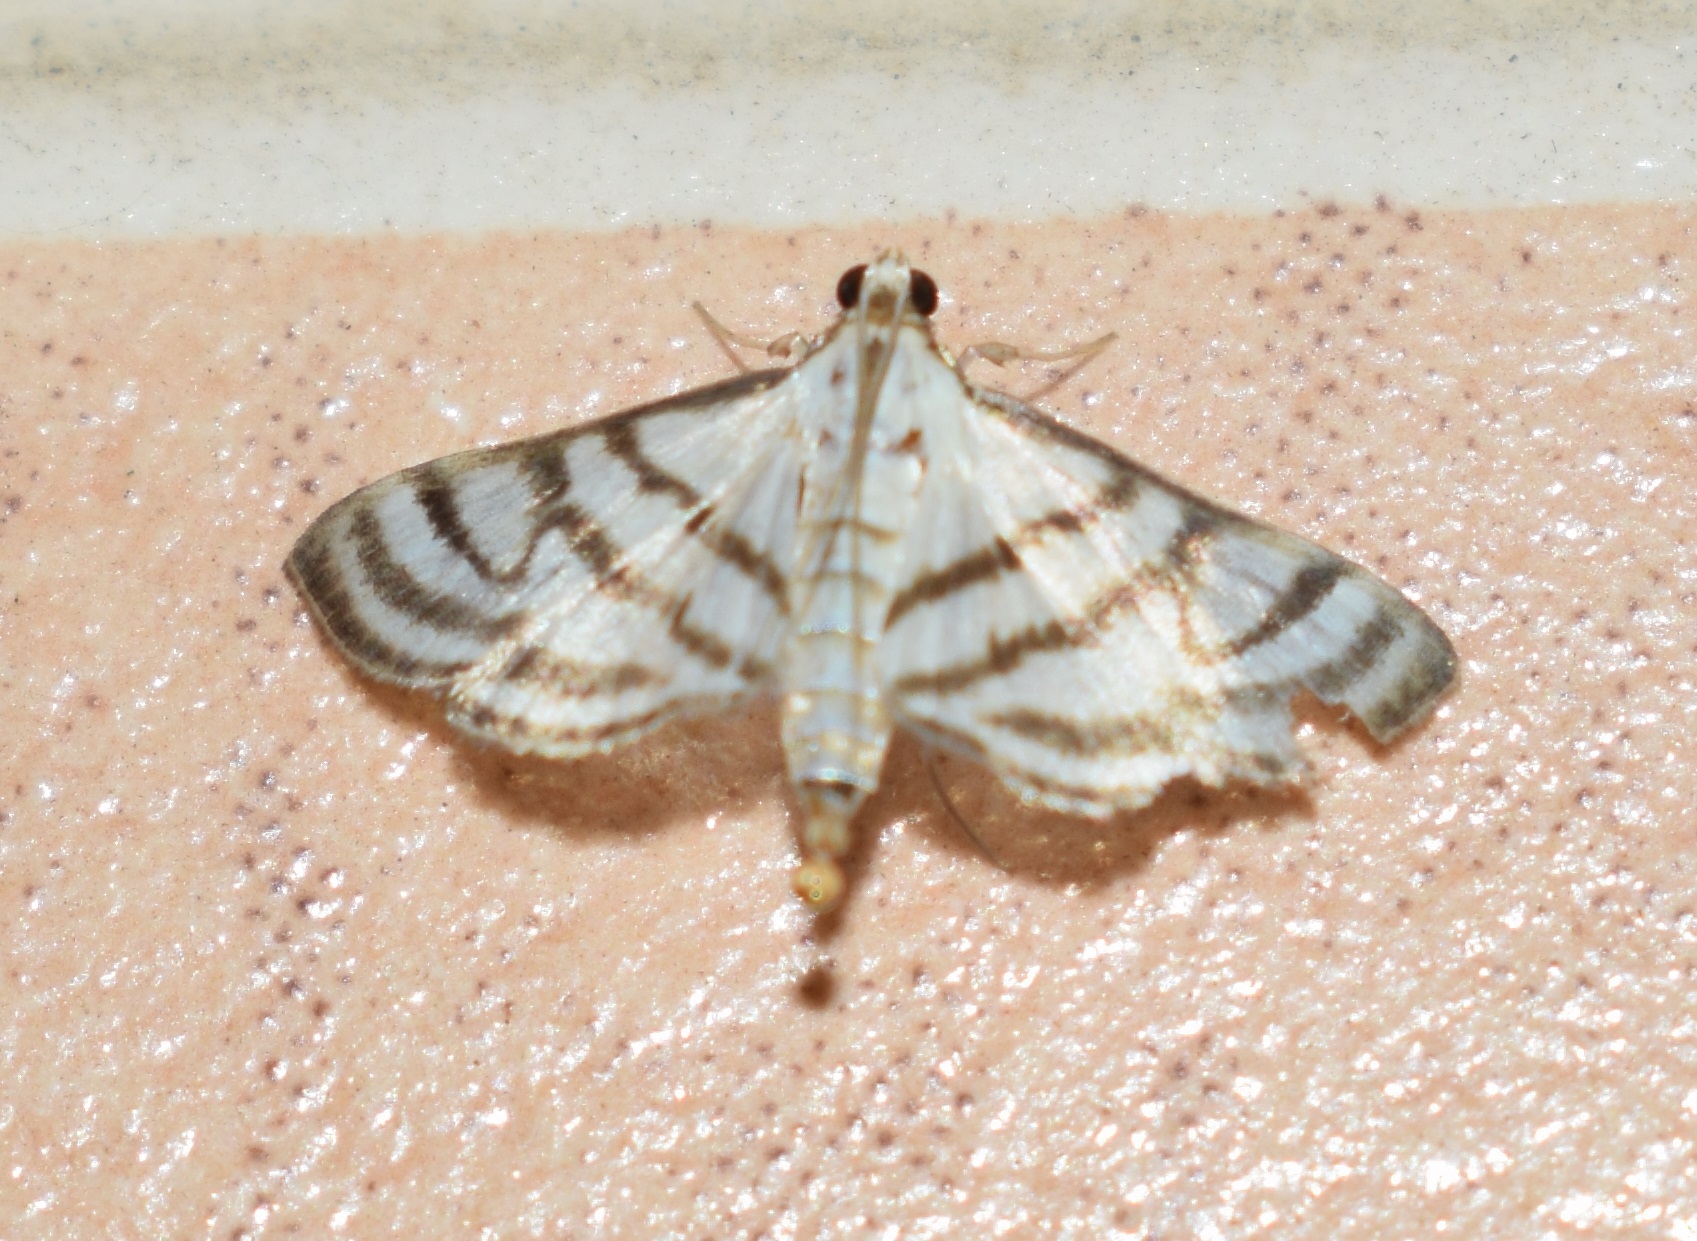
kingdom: Animalia
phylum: Arthropoda
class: Insecta
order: Lepidoptera
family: Crambidae
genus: Ravanoa
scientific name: Ravanoa xiphialis
